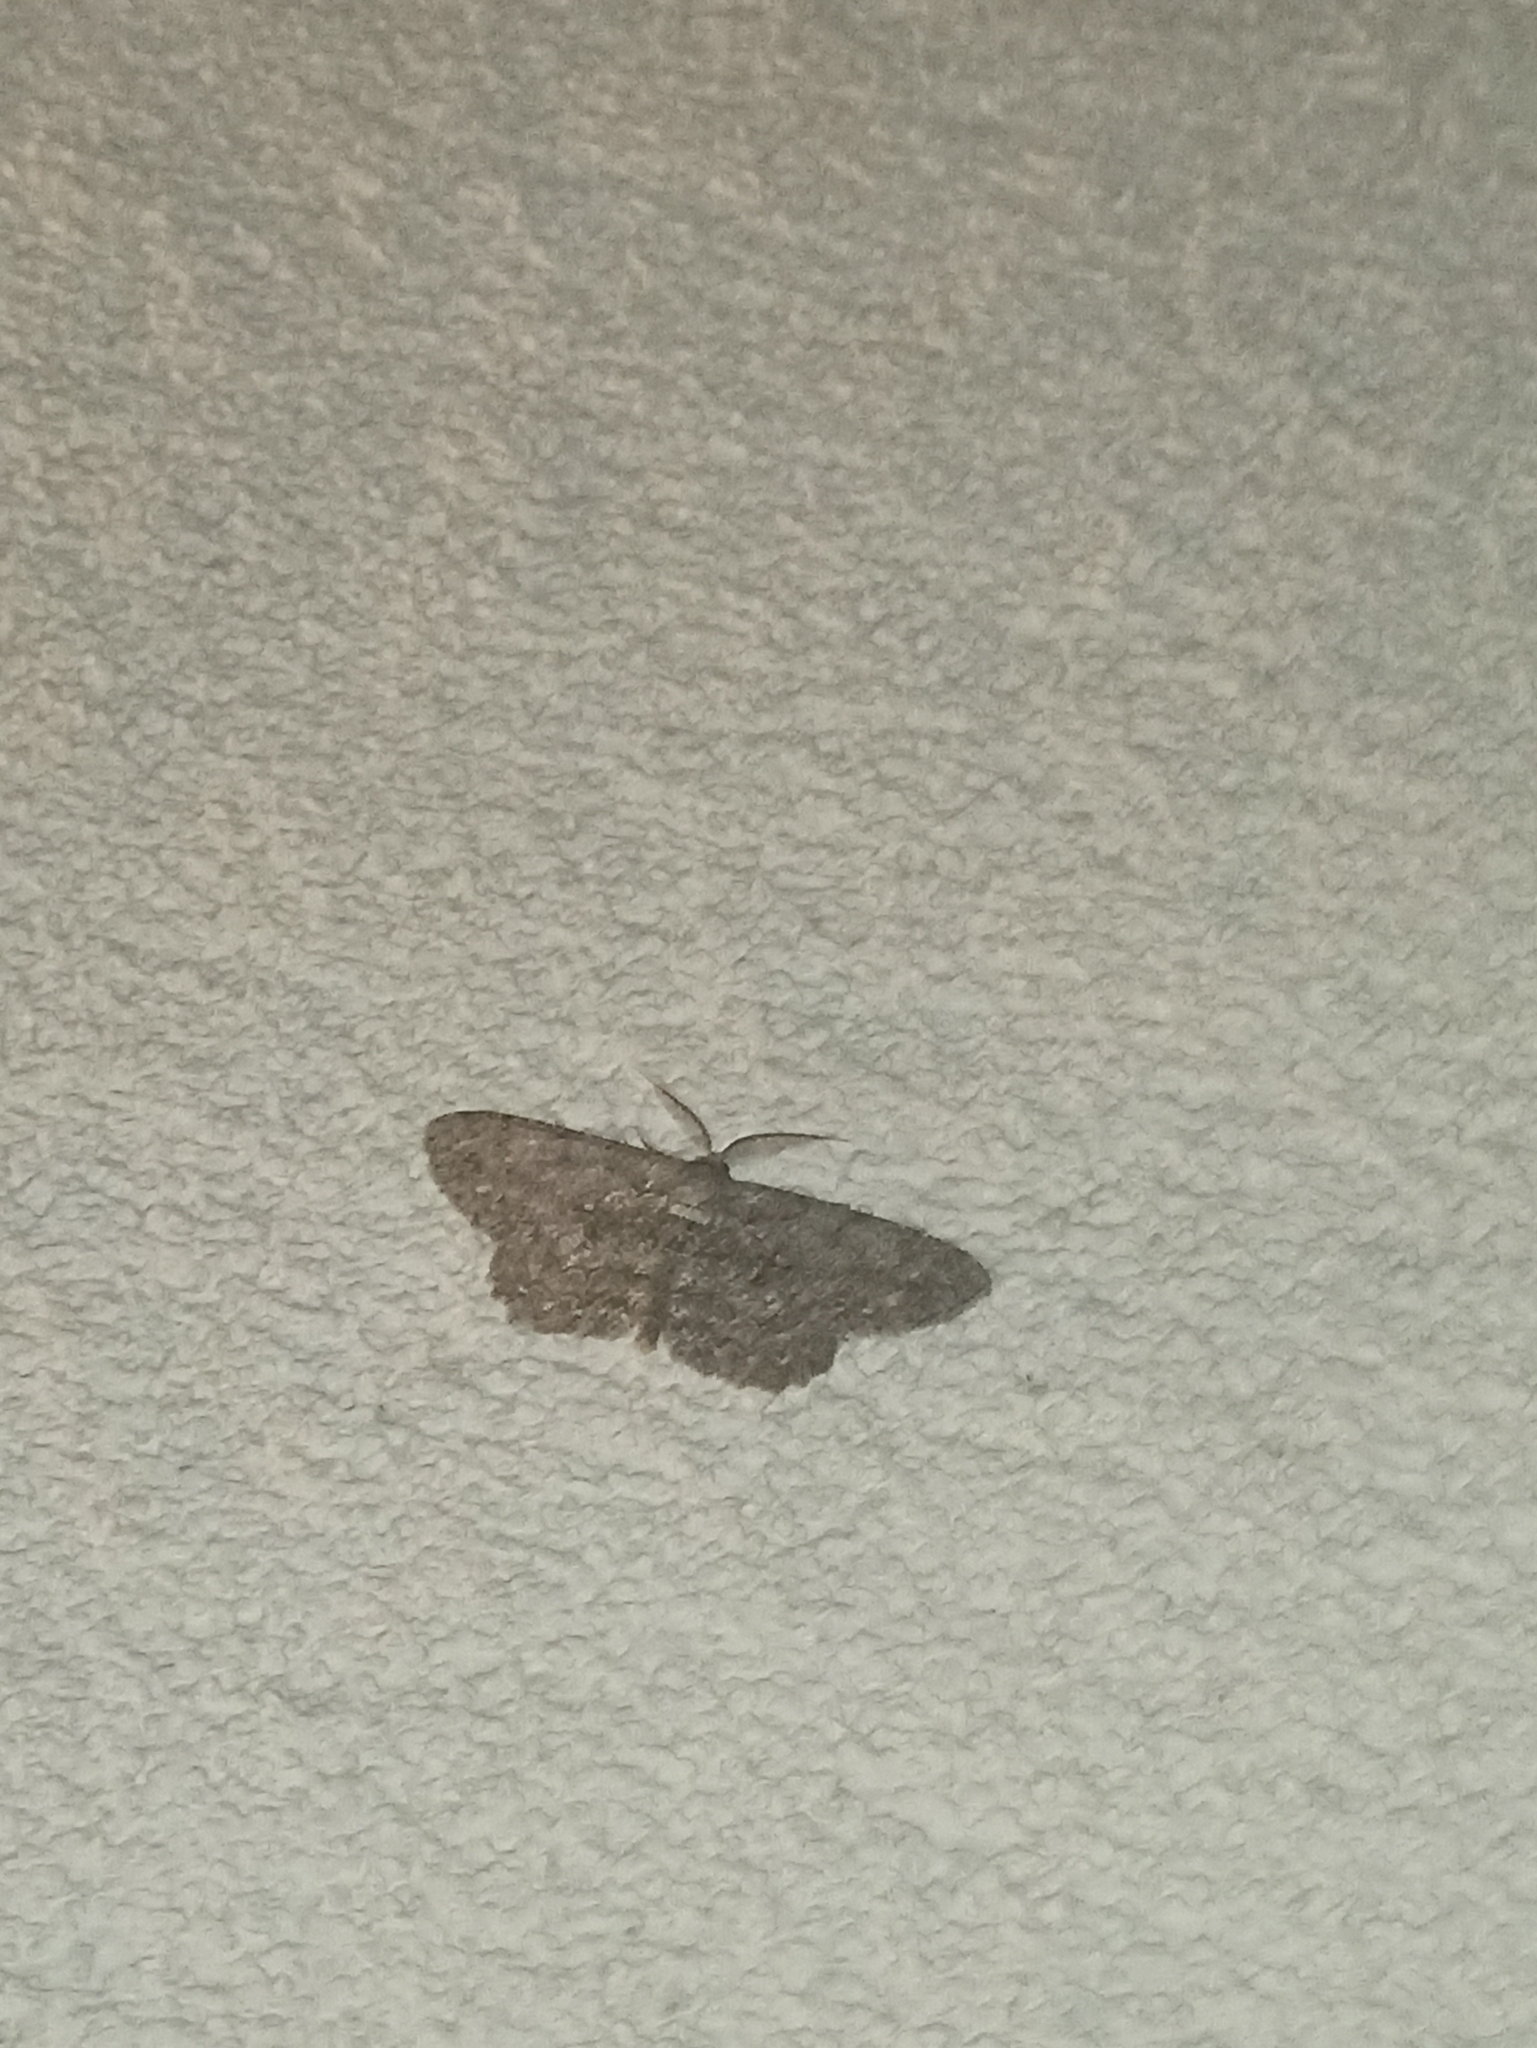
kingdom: Animalia
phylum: Arthropoda
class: Insecta
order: Lepidoptera
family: Geometridae
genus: Hypomecis
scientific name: Hypomecis punctinalis
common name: Pale oak beauty
